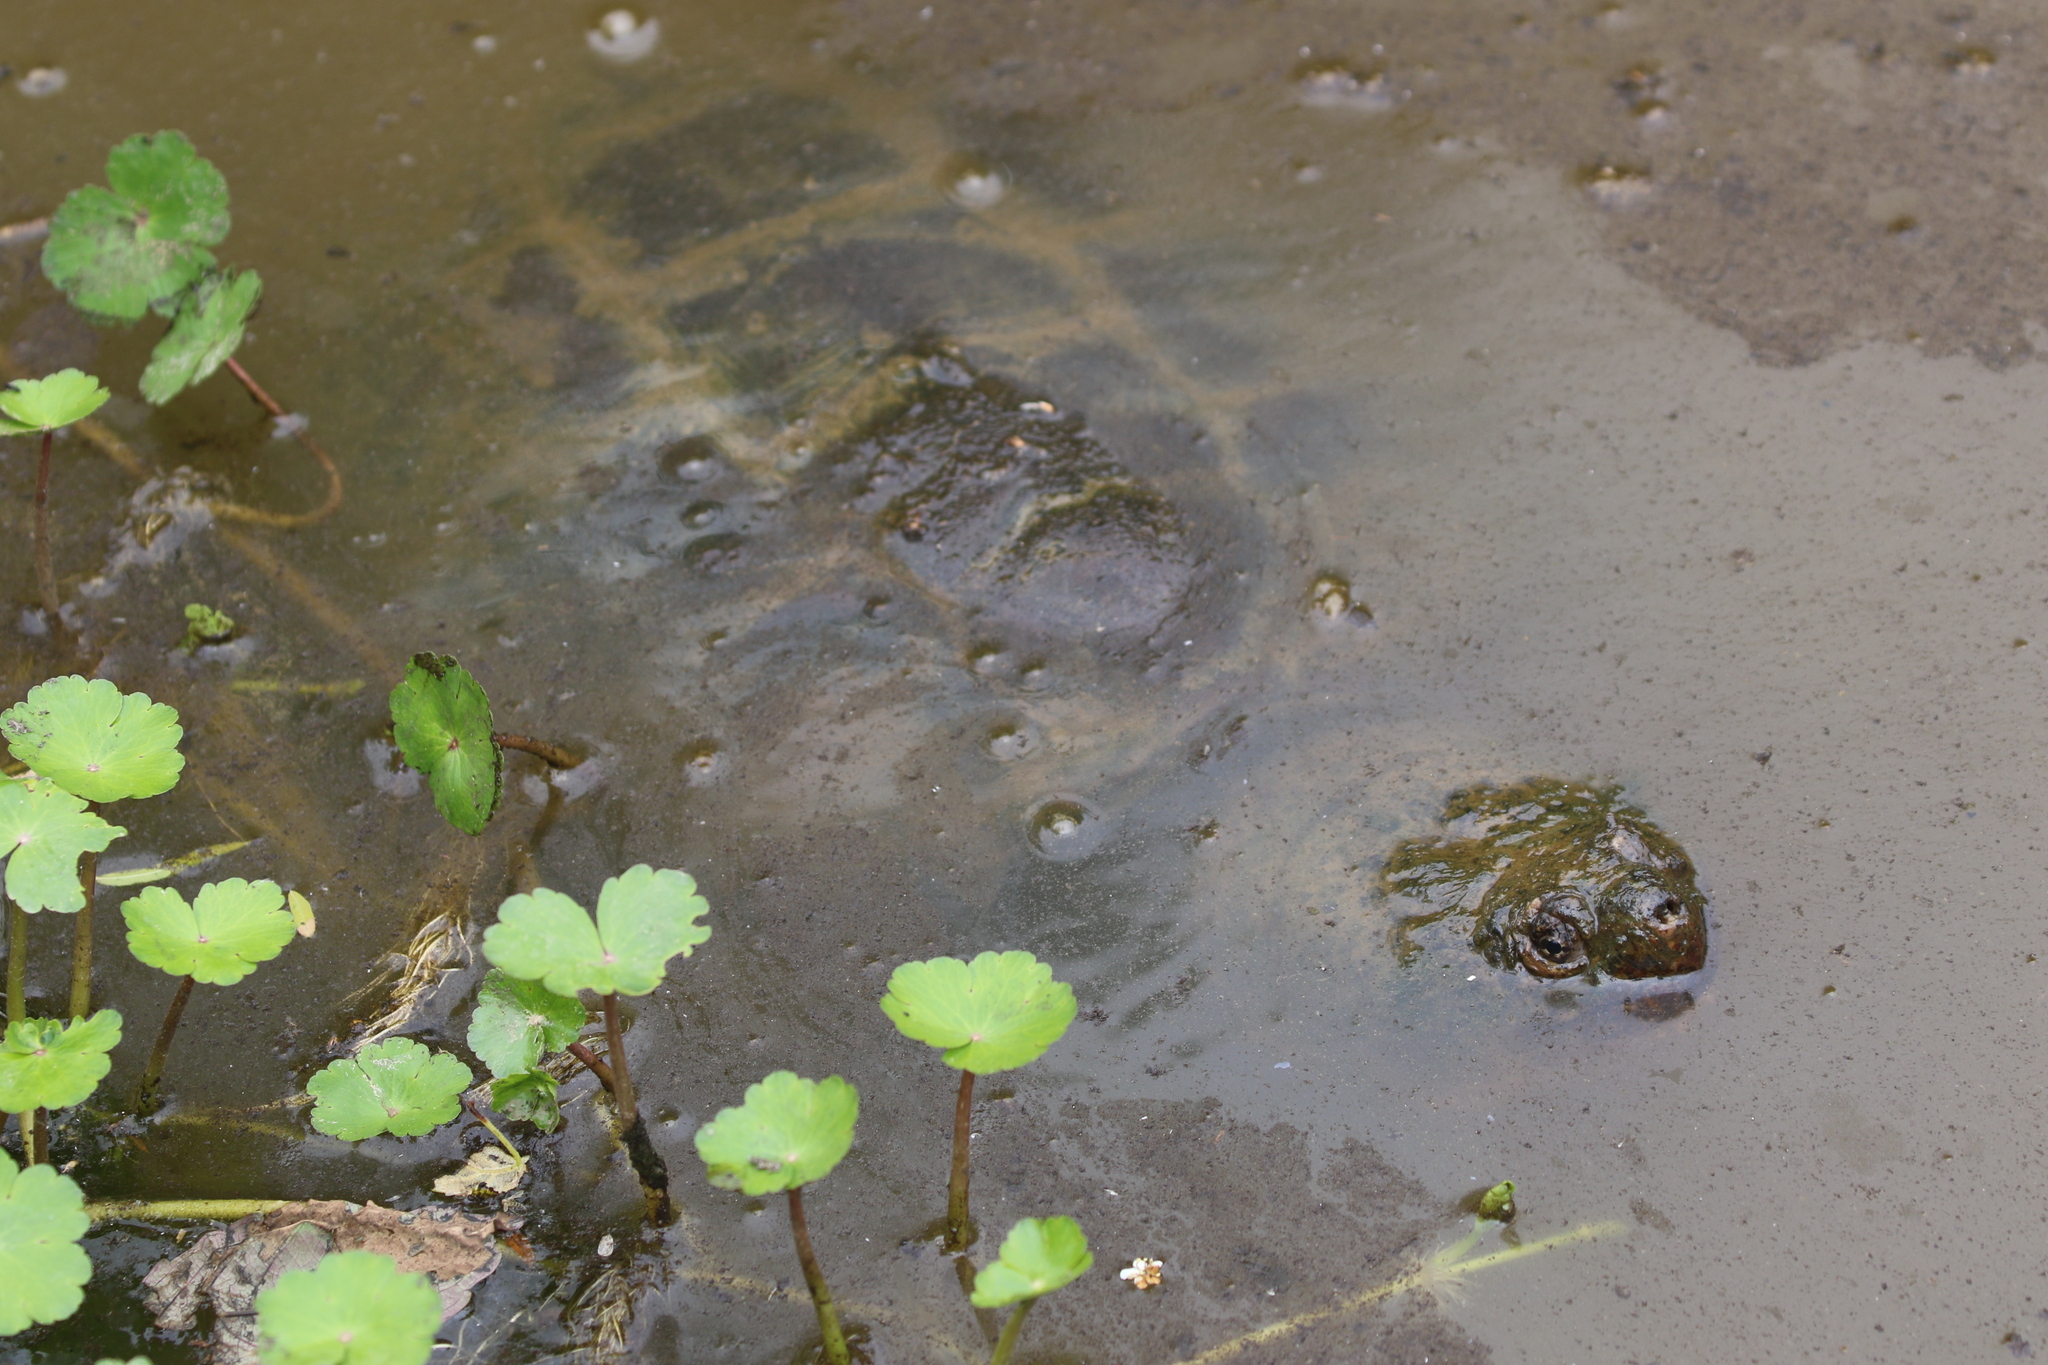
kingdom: Animalia
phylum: Chordata
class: Testudines
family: Chelydridae
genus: Chelydra
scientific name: Chelydra serpentina
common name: Common snapping turtle
